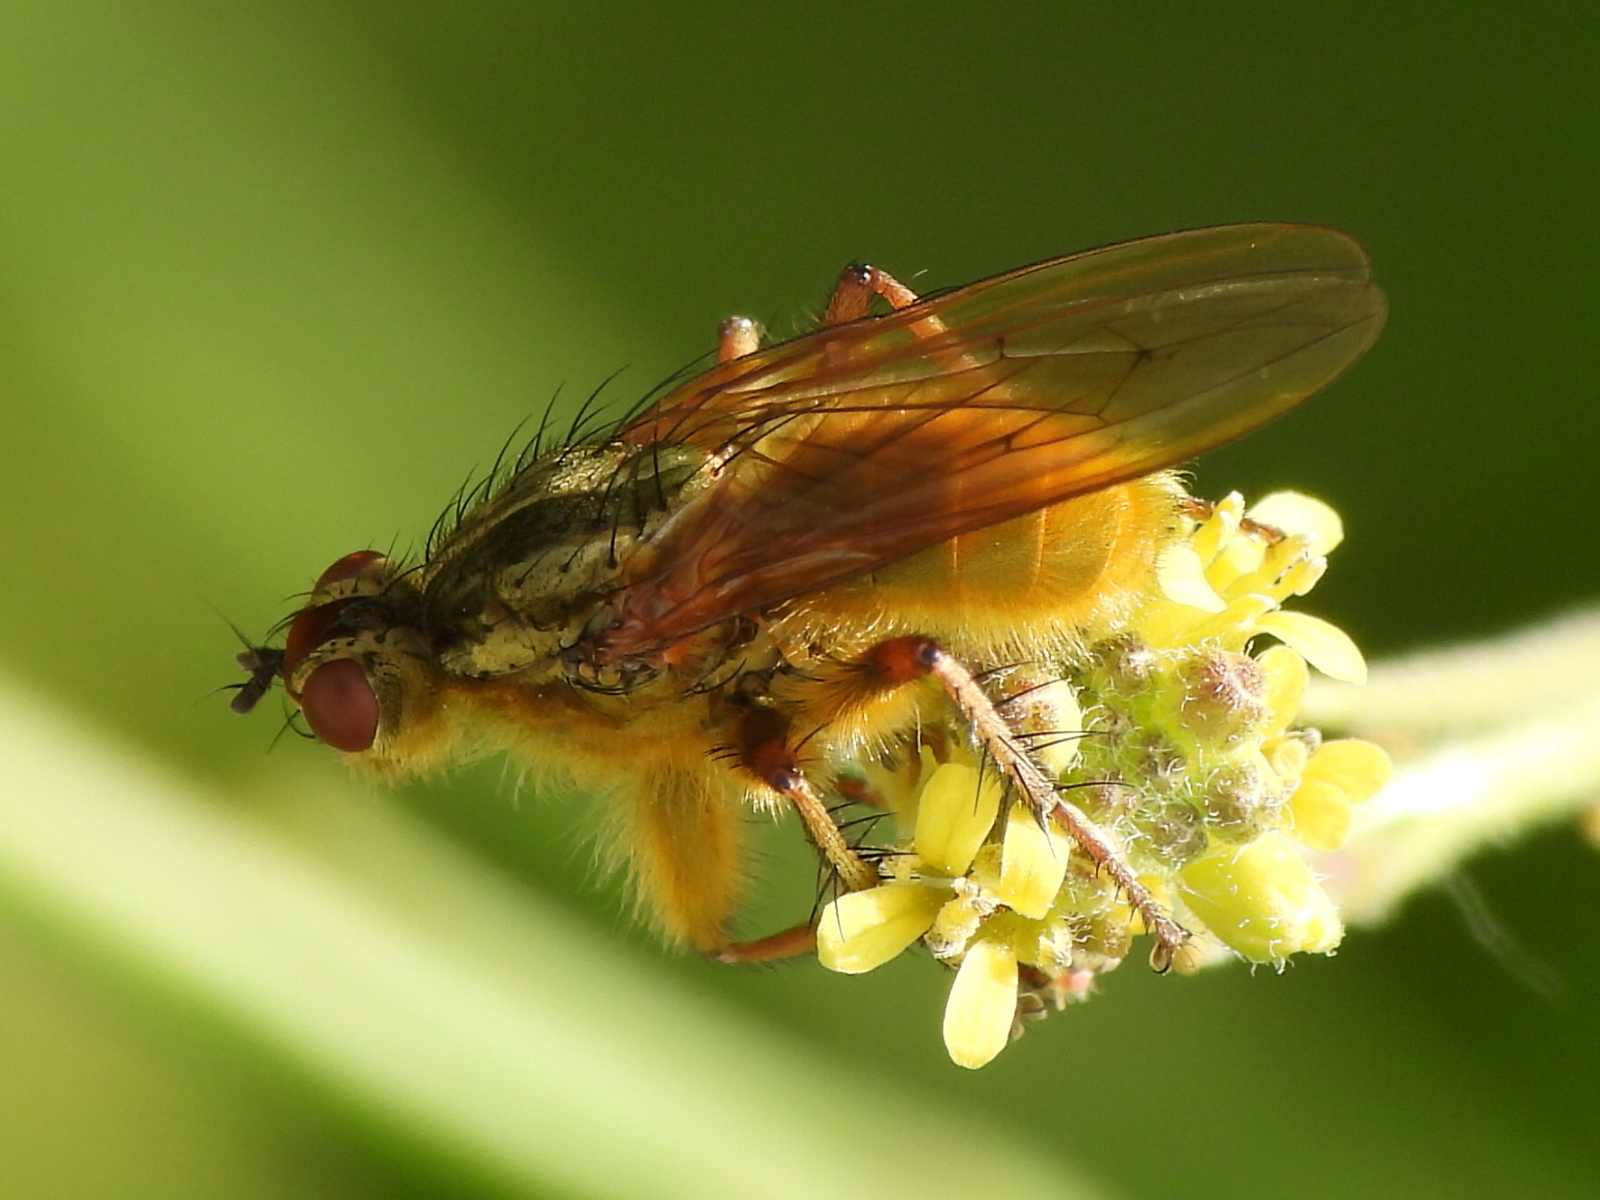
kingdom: Animalia
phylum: Arthropoda
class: Insecta
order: Diptera
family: Scathophagidae
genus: Scathophaga
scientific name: Scathophaga stercoraria
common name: Yellow dung fly
